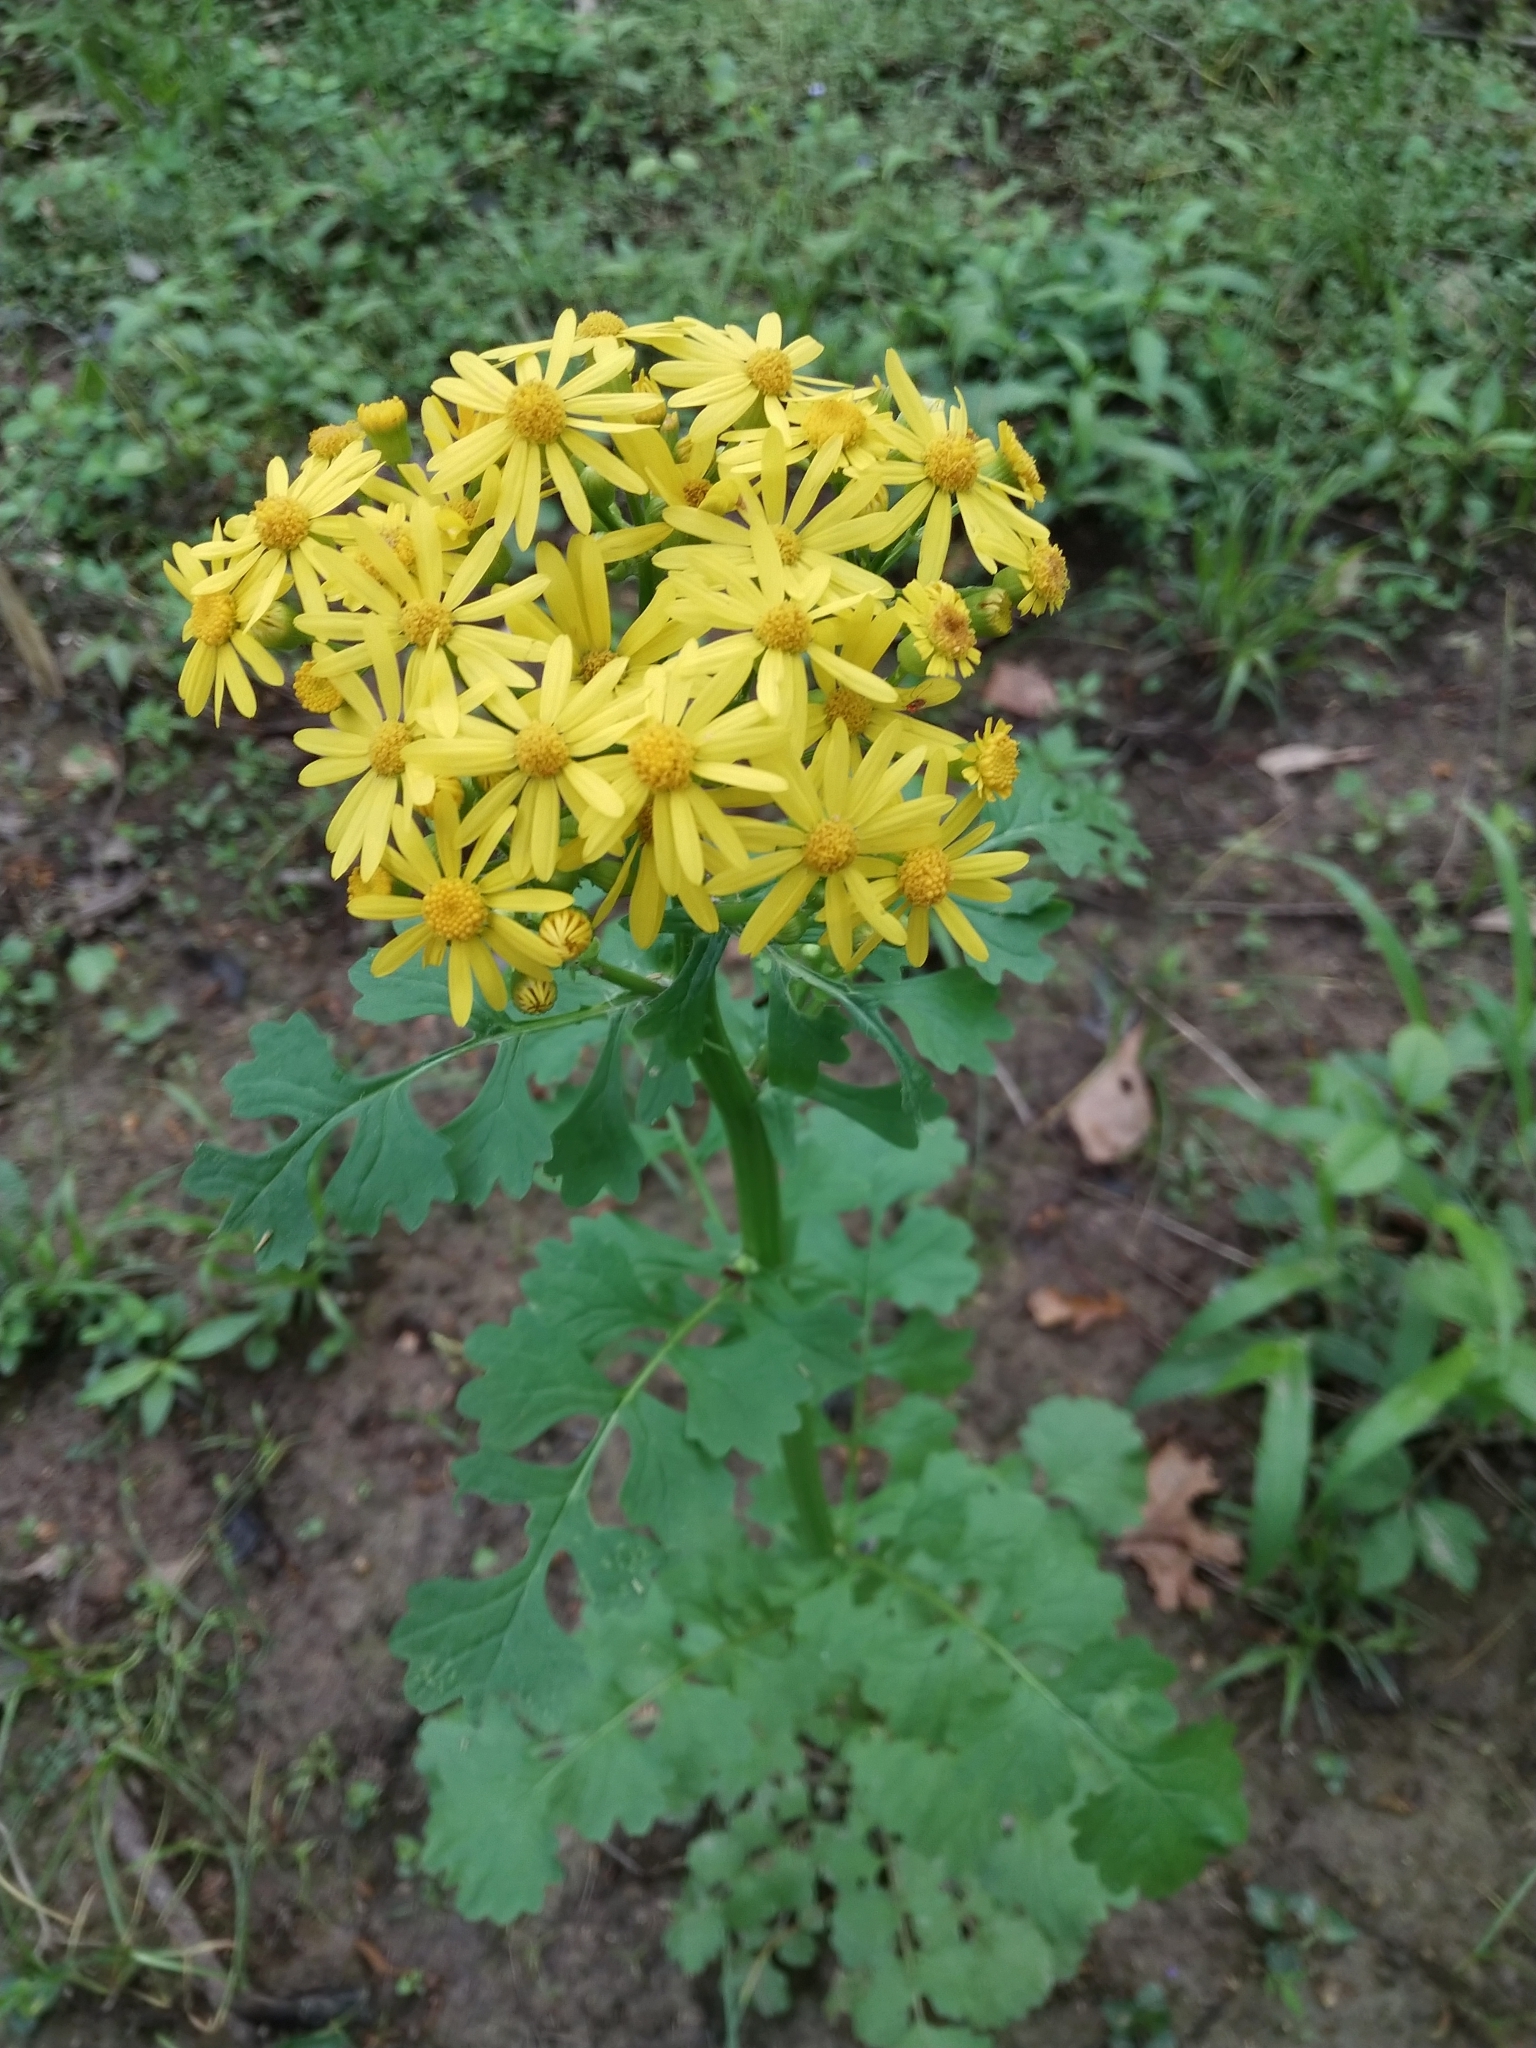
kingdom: Plantae
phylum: Tracheophyta
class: Magnoliopsida
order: Asterales
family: Asteraceae
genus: Packera
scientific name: Packera glabella
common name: Butterweed
